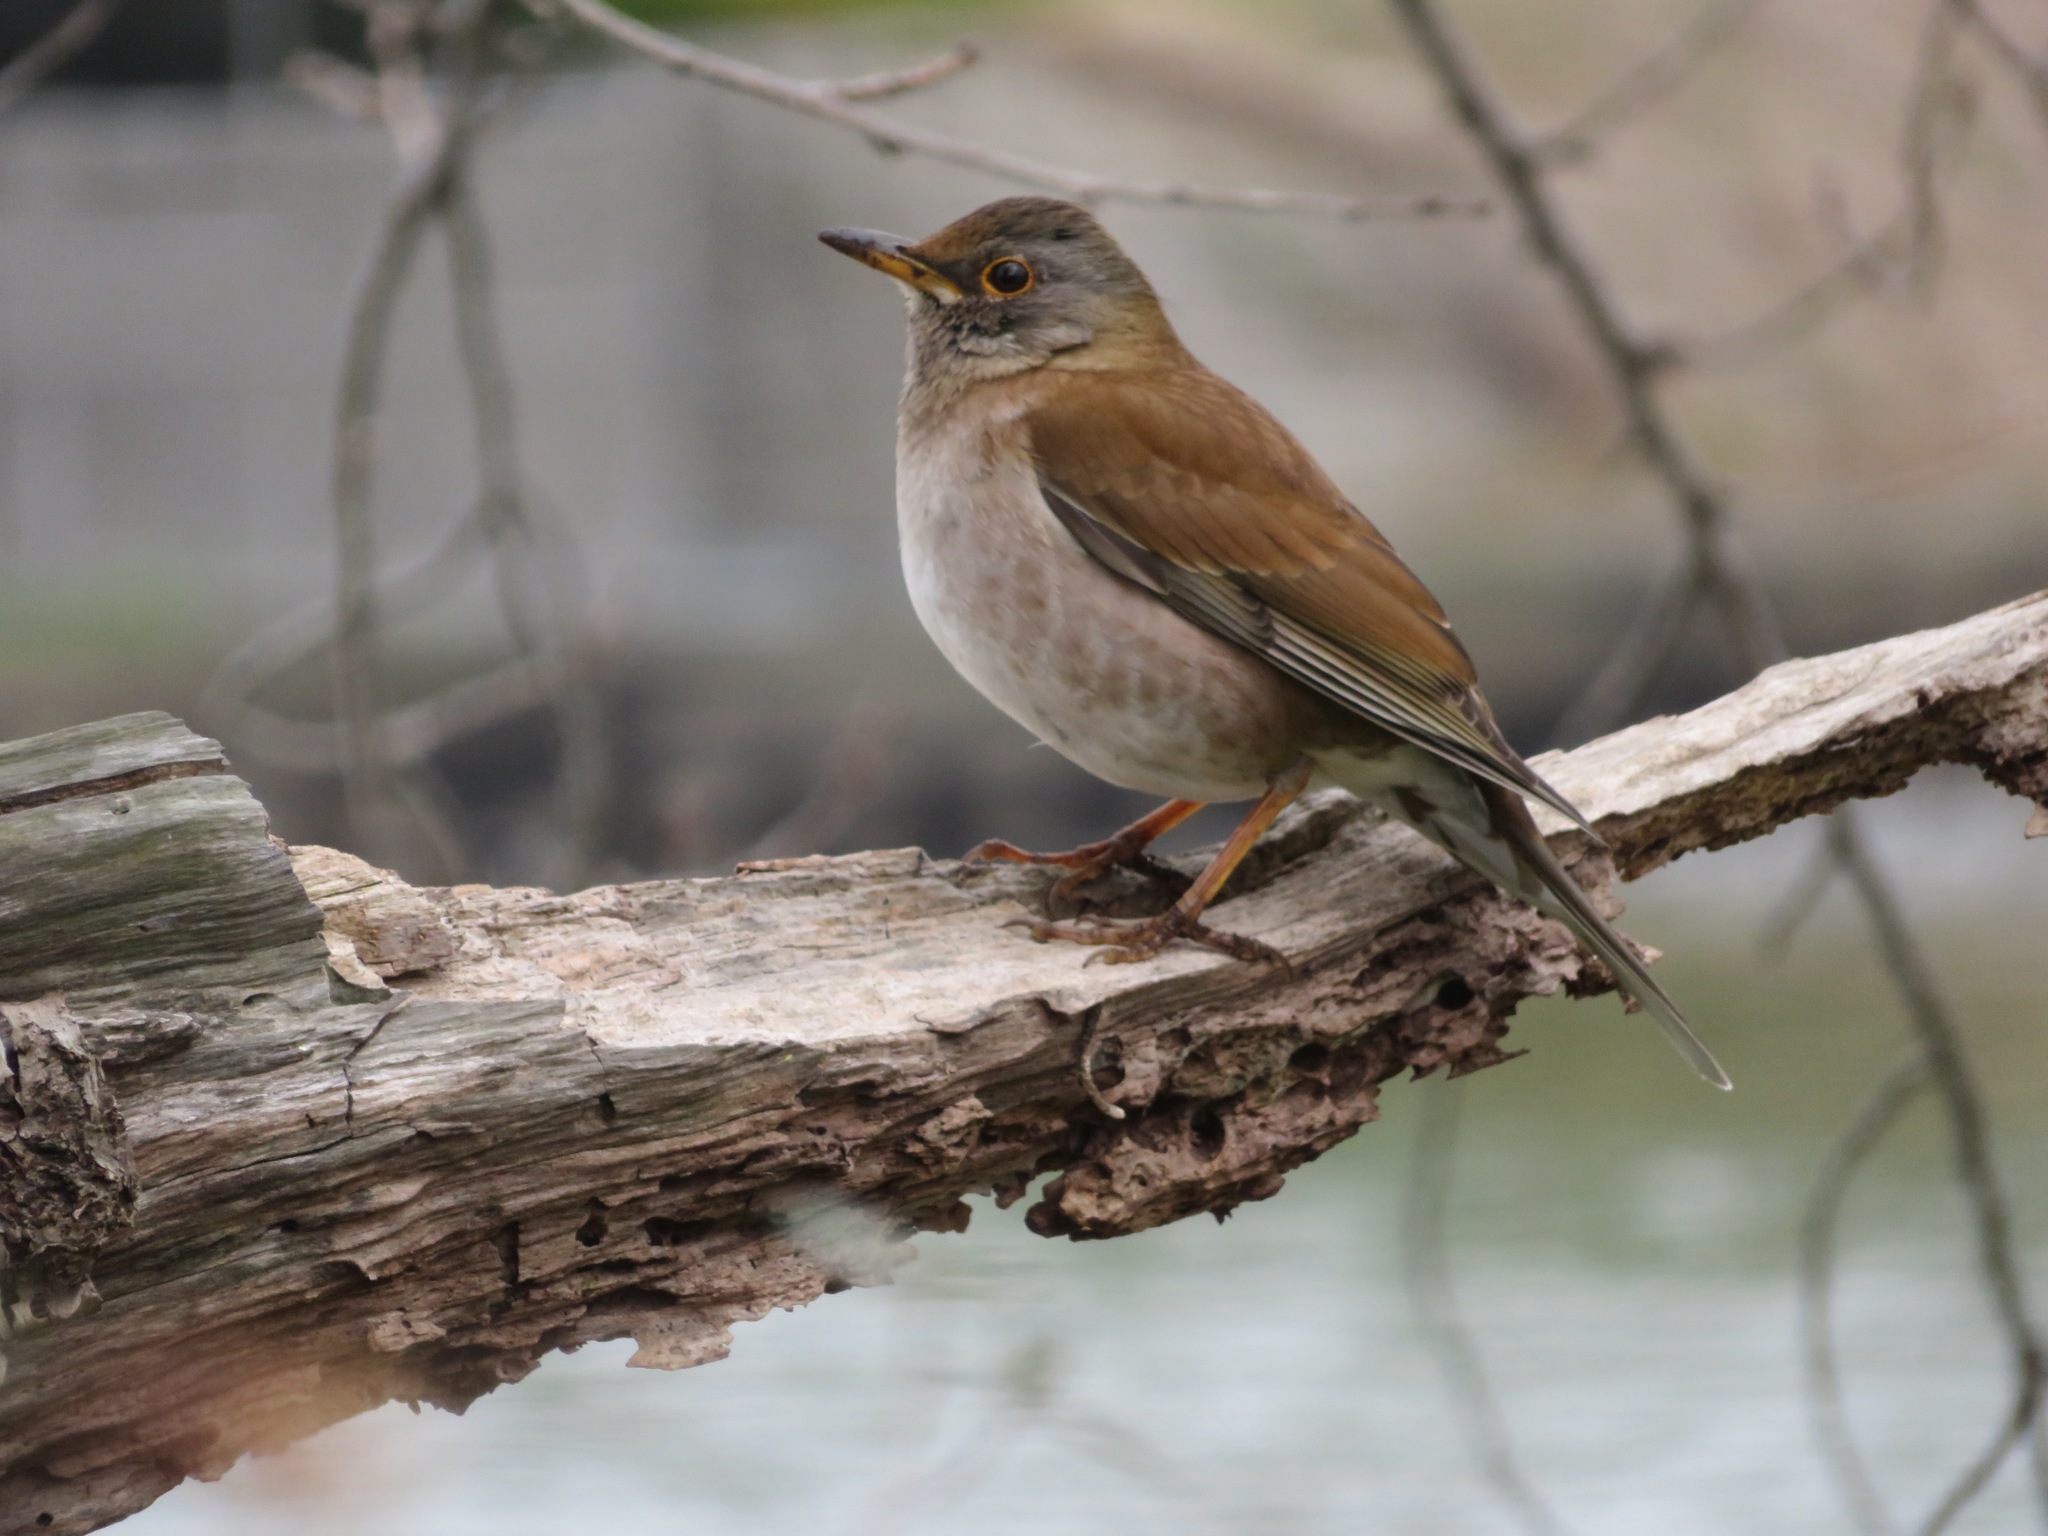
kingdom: Animalia
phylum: Chordata
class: Aves
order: Passeriformes
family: Turdidae
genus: Turdus
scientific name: Turdus pallidus
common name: Pale thrush
